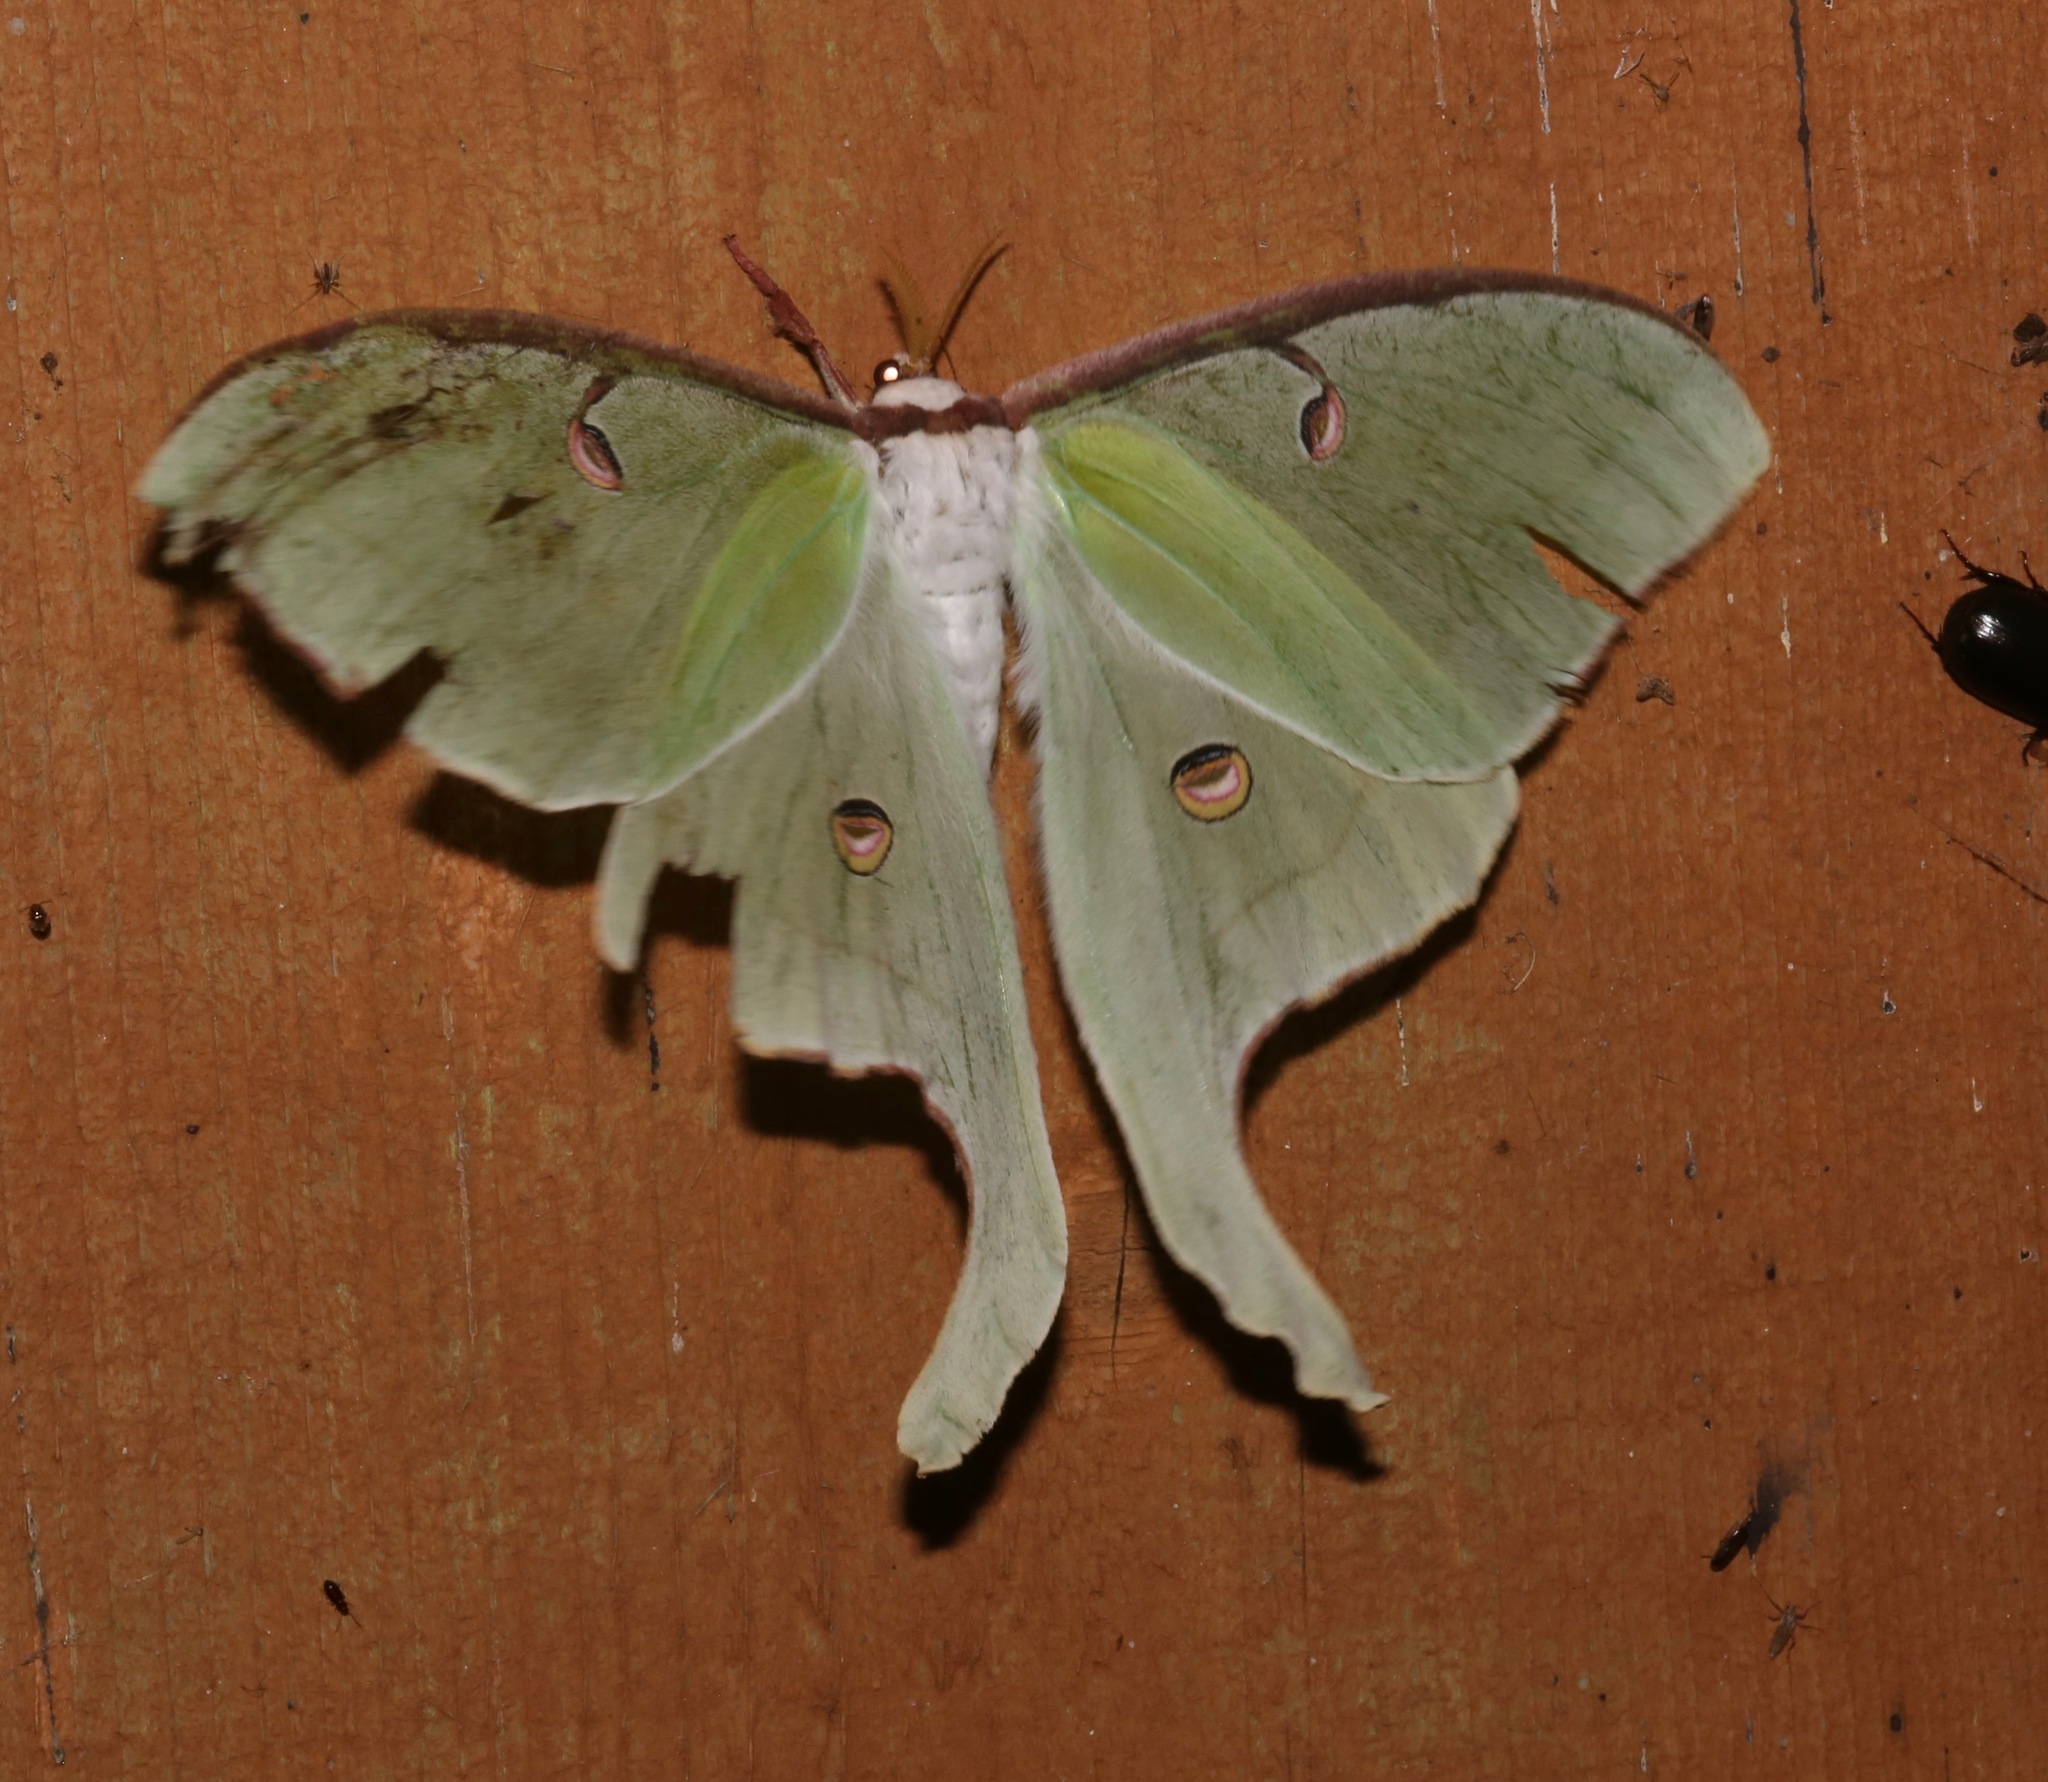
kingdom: Animalia
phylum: Arthropoda
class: Insecta
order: Lepidoptera
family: Saturniidae
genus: Actias
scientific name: Actias luna
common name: Luna moth
